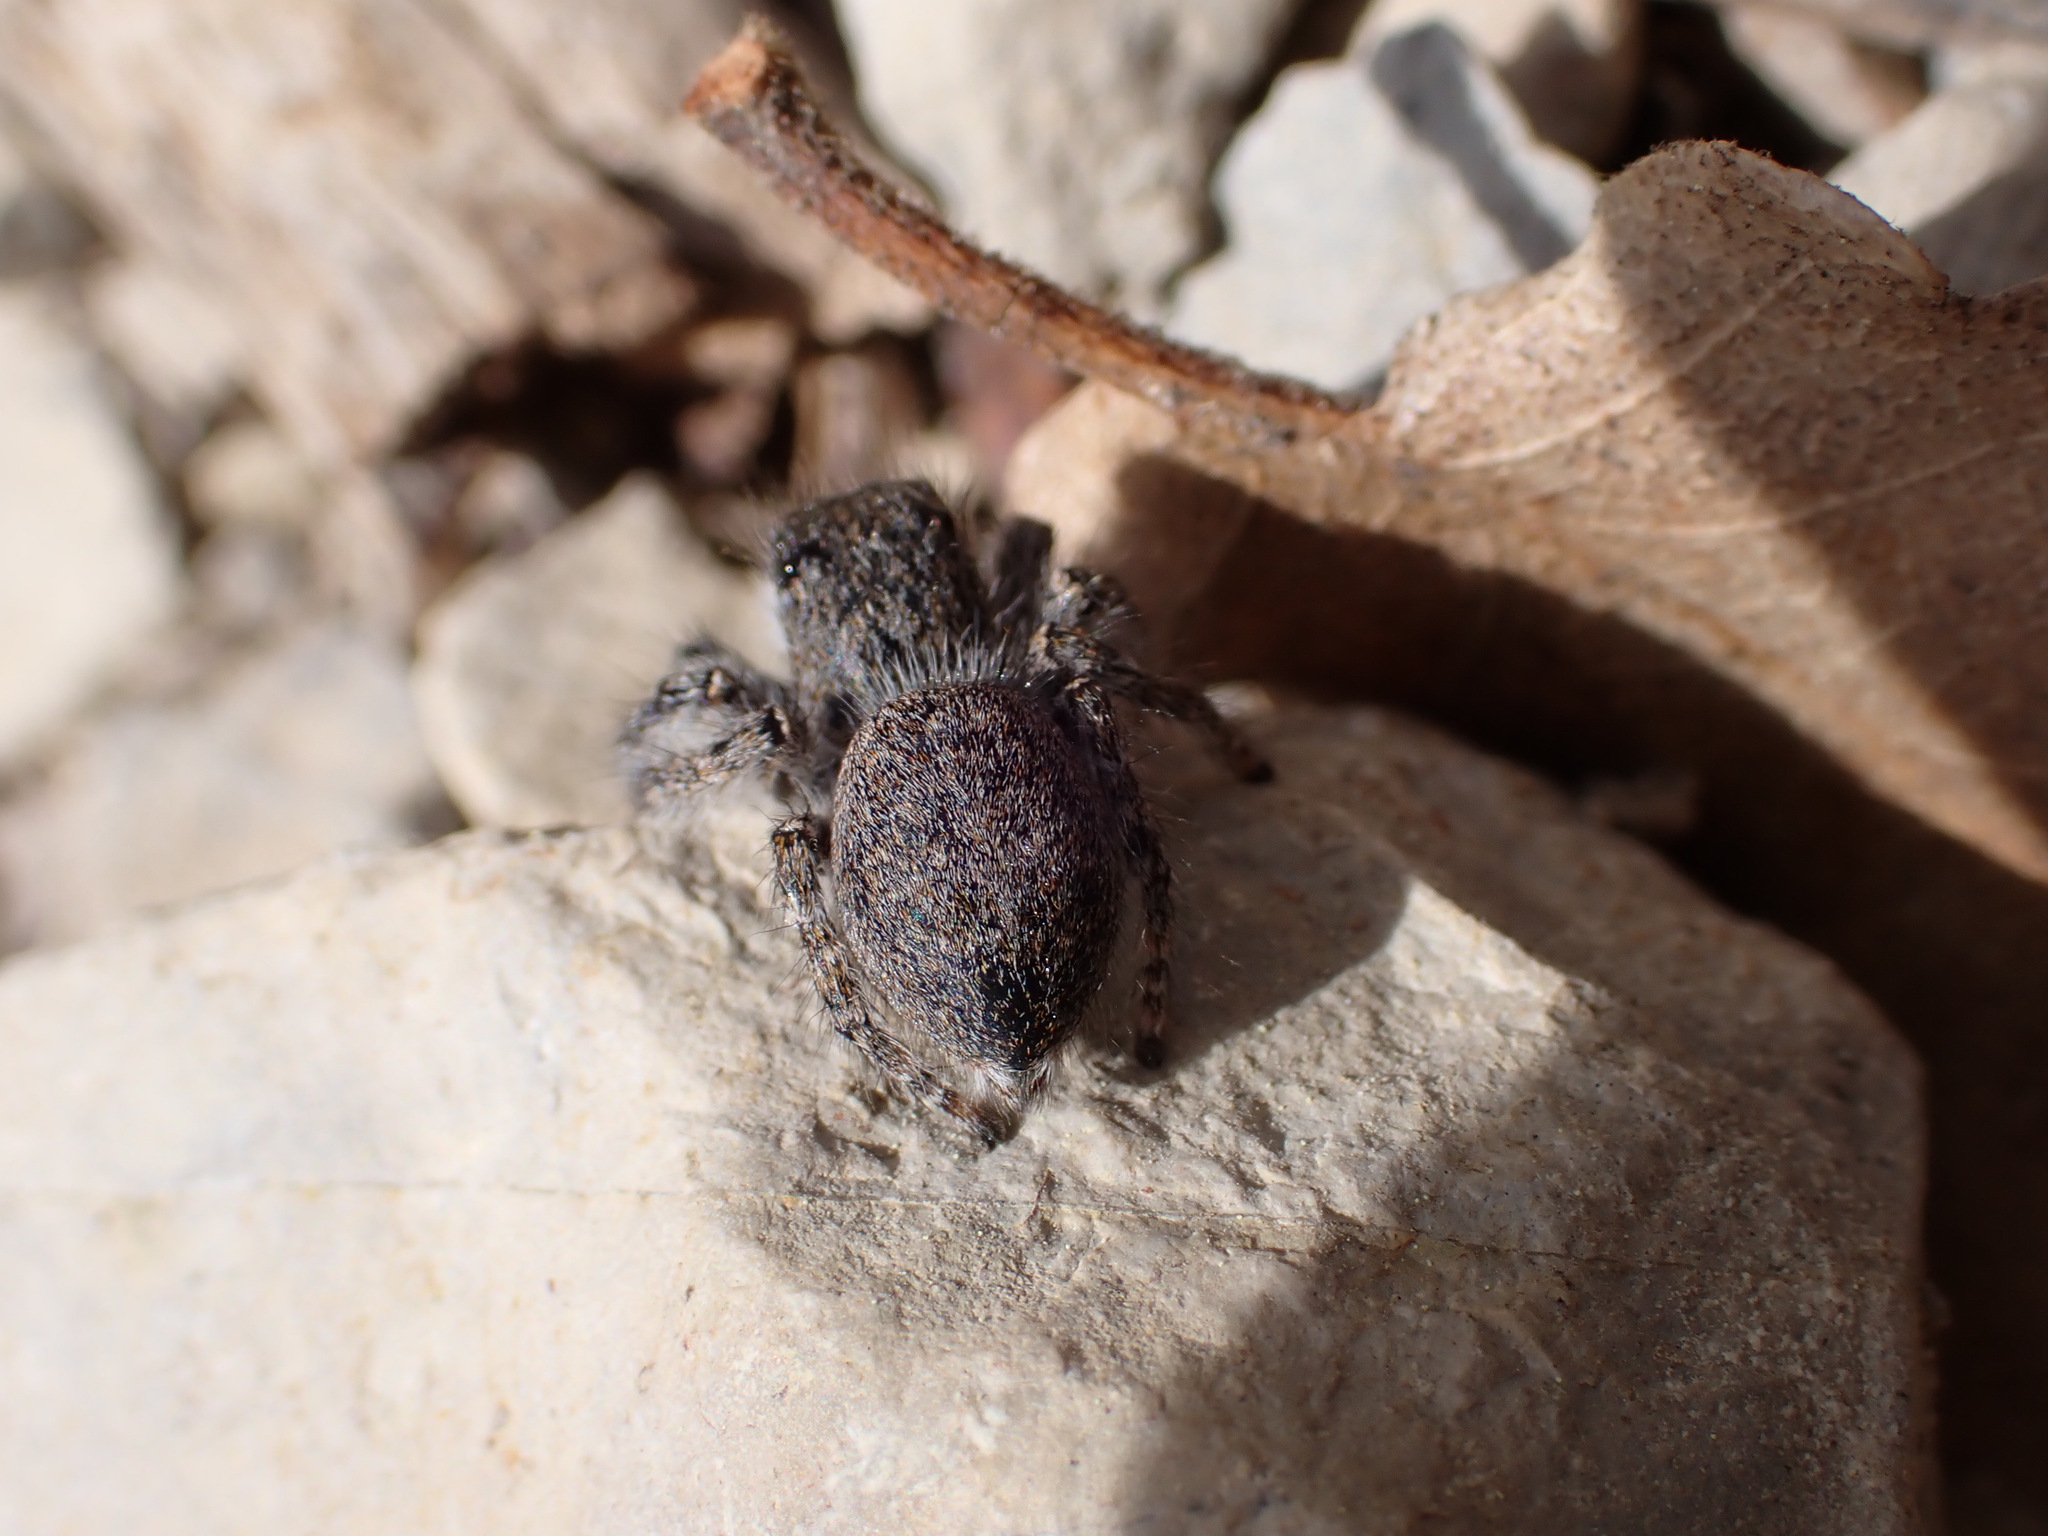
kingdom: Animalia
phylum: Arthropoda
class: Arachnida
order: Araneae
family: Salticidae
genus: Philaeus
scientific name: Philaeus chrysops
